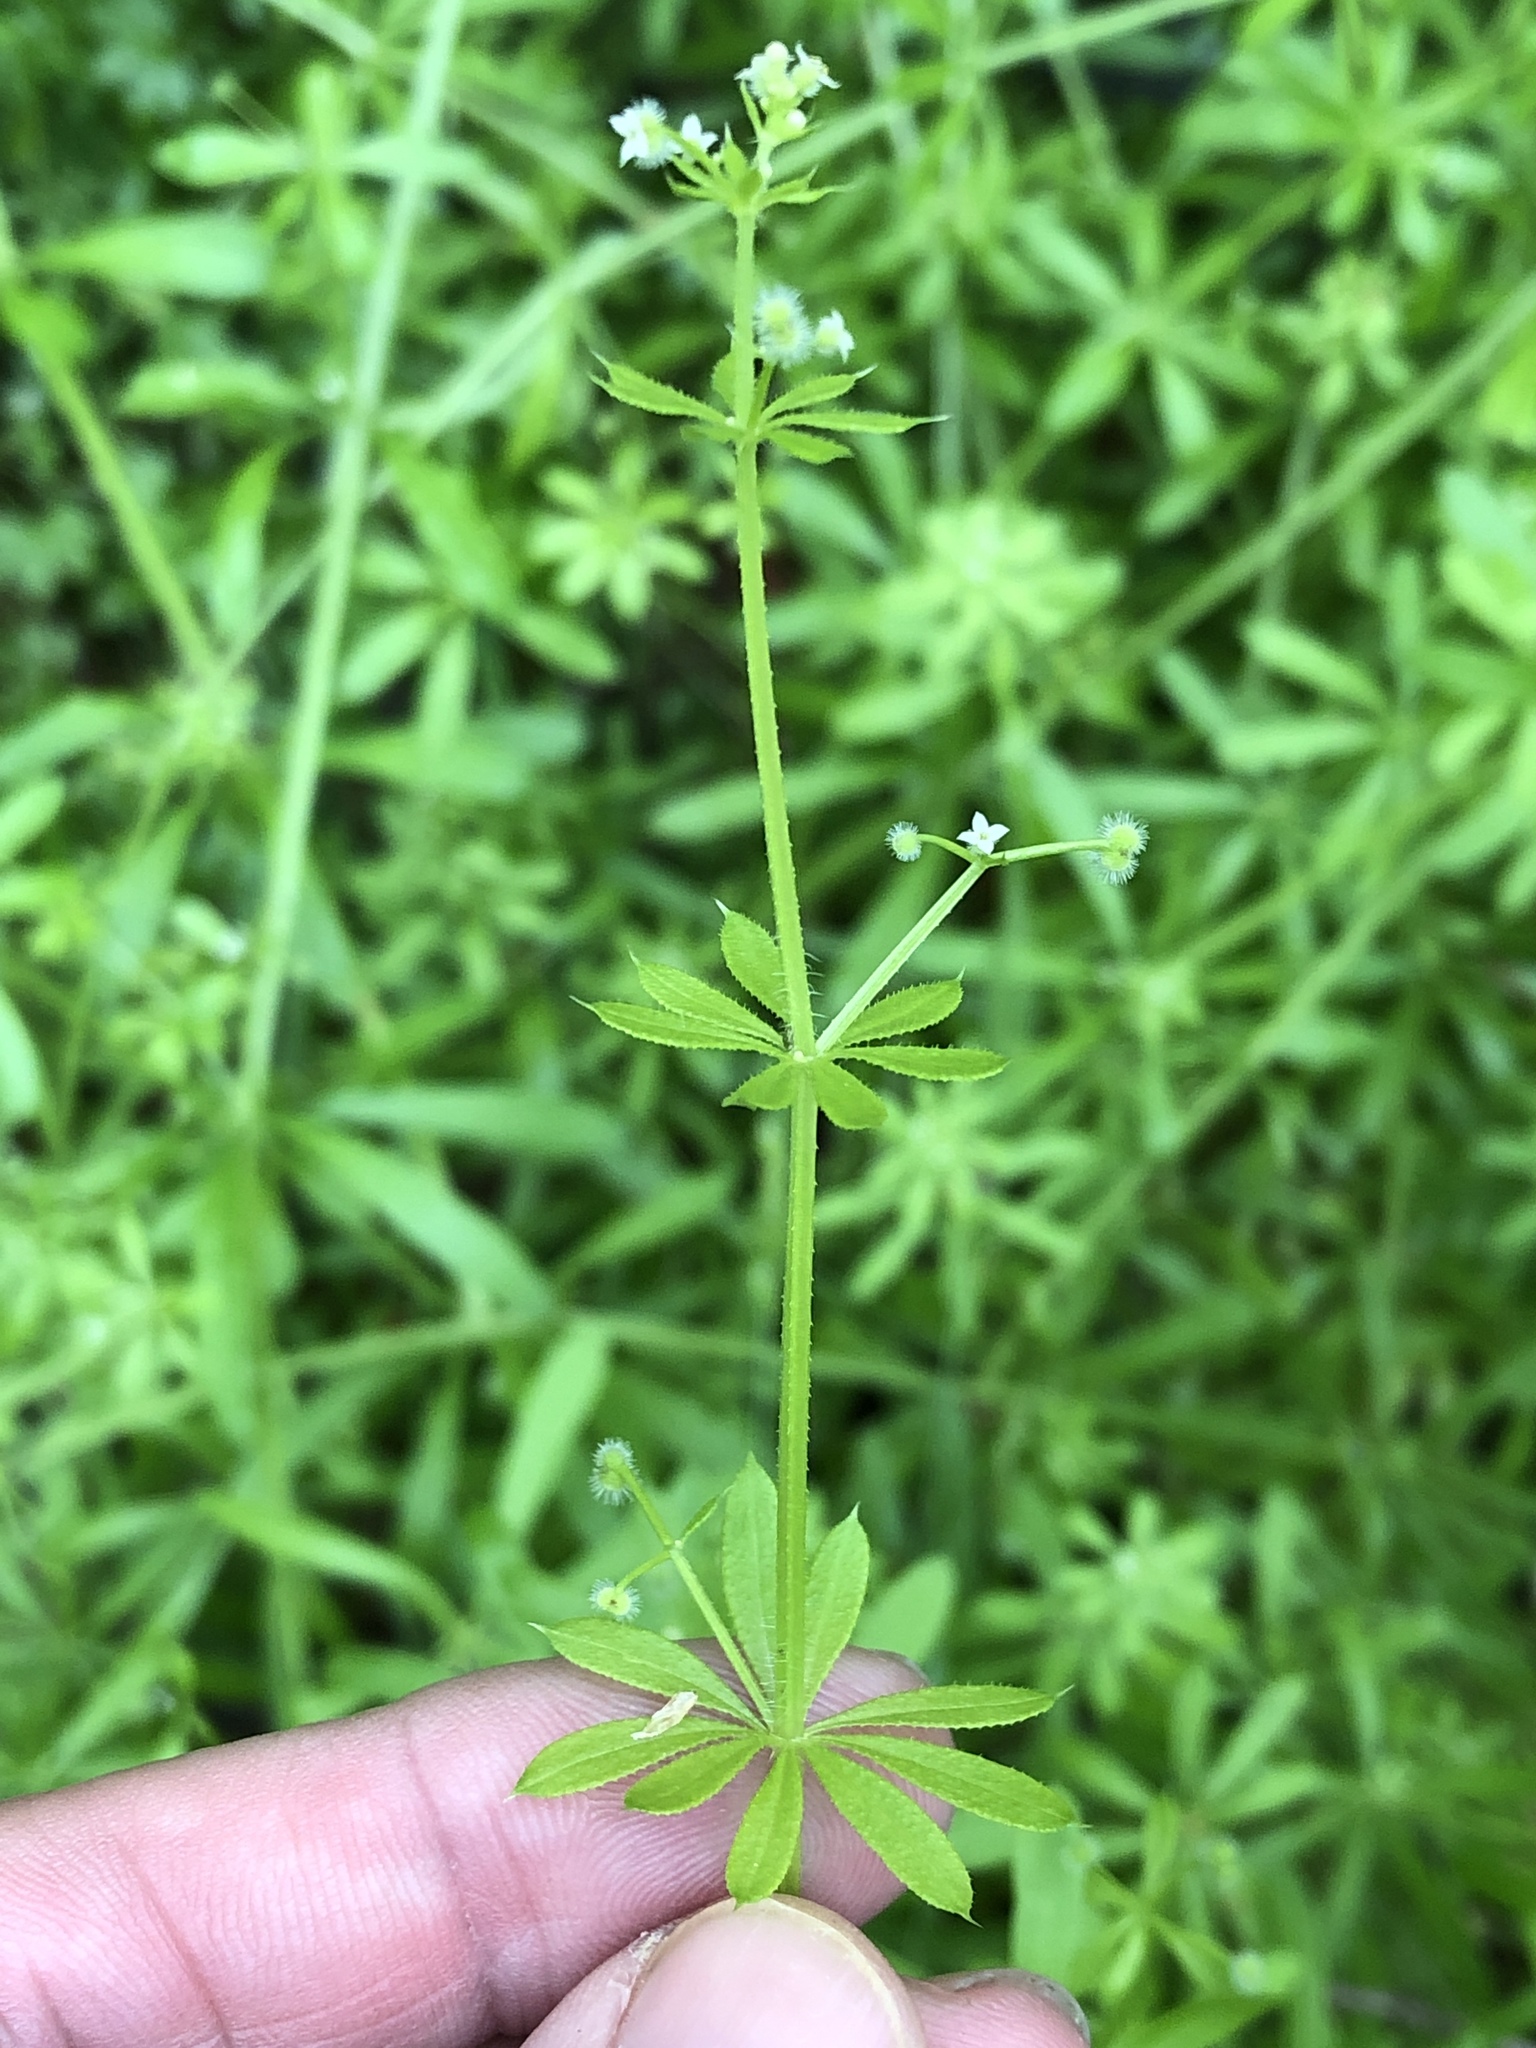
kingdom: Plantae
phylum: Tracheophyta
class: Magnoliopsida
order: Gentianales
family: Rubiaceae
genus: Galium
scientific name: Galium aparine
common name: Cleavers
